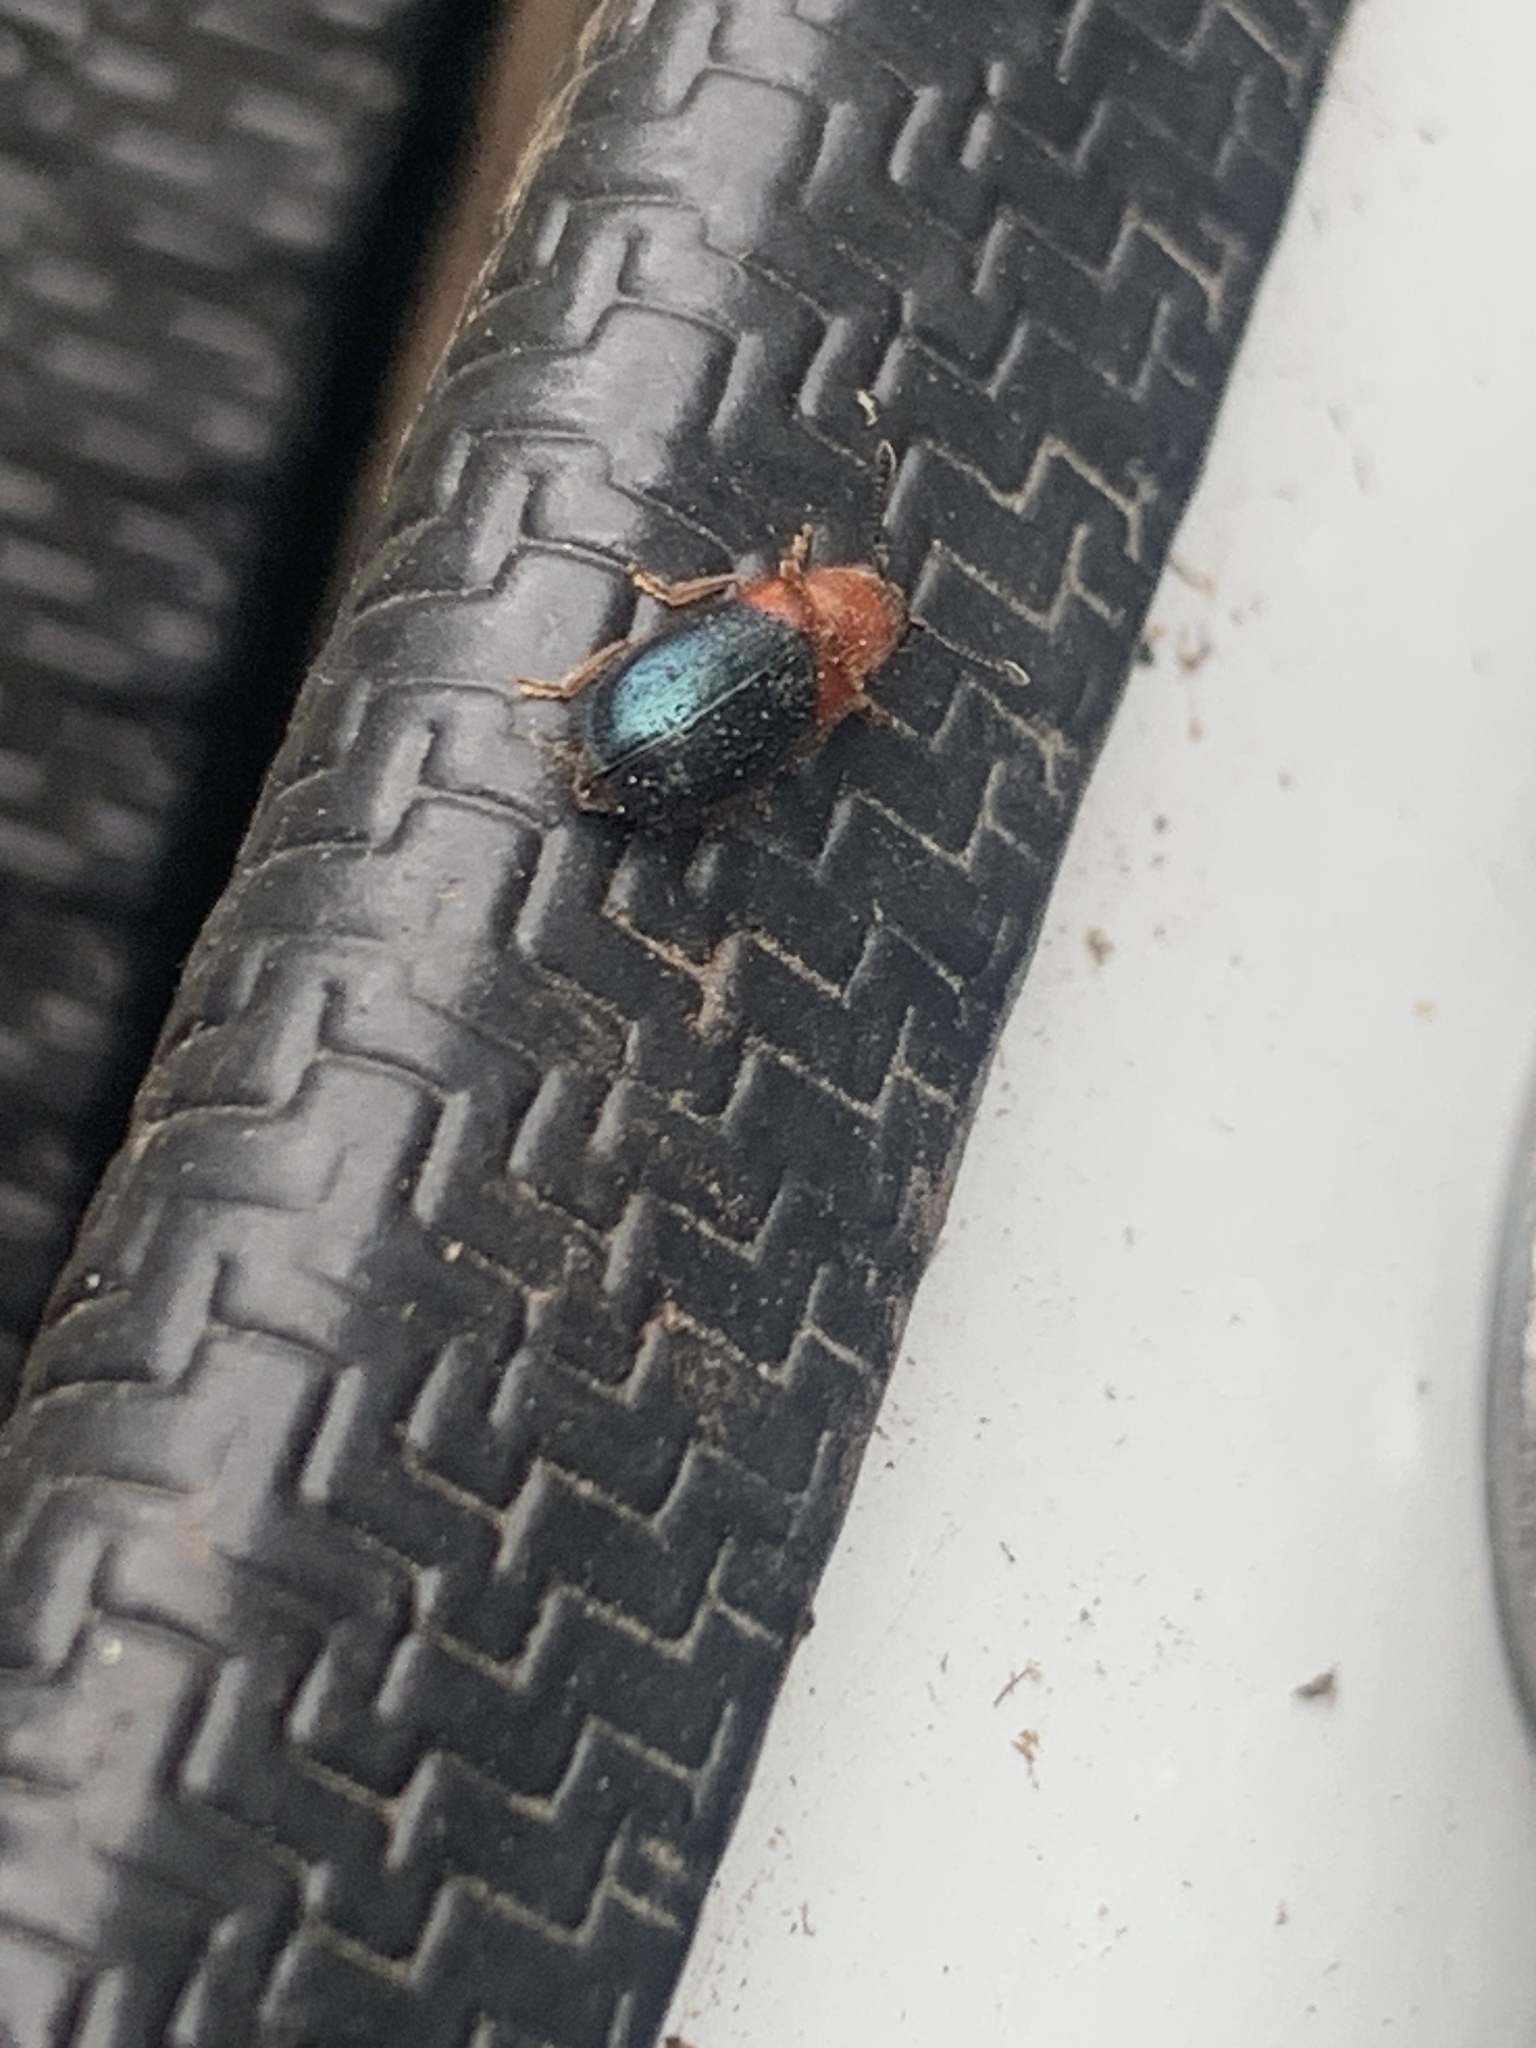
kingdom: Animalia
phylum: Arthropoda
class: Insecta
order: Coleoptera
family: Cleridae
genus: Necrobia
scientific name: Necrobia ruficollis
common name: Redshouldered ham beetle
